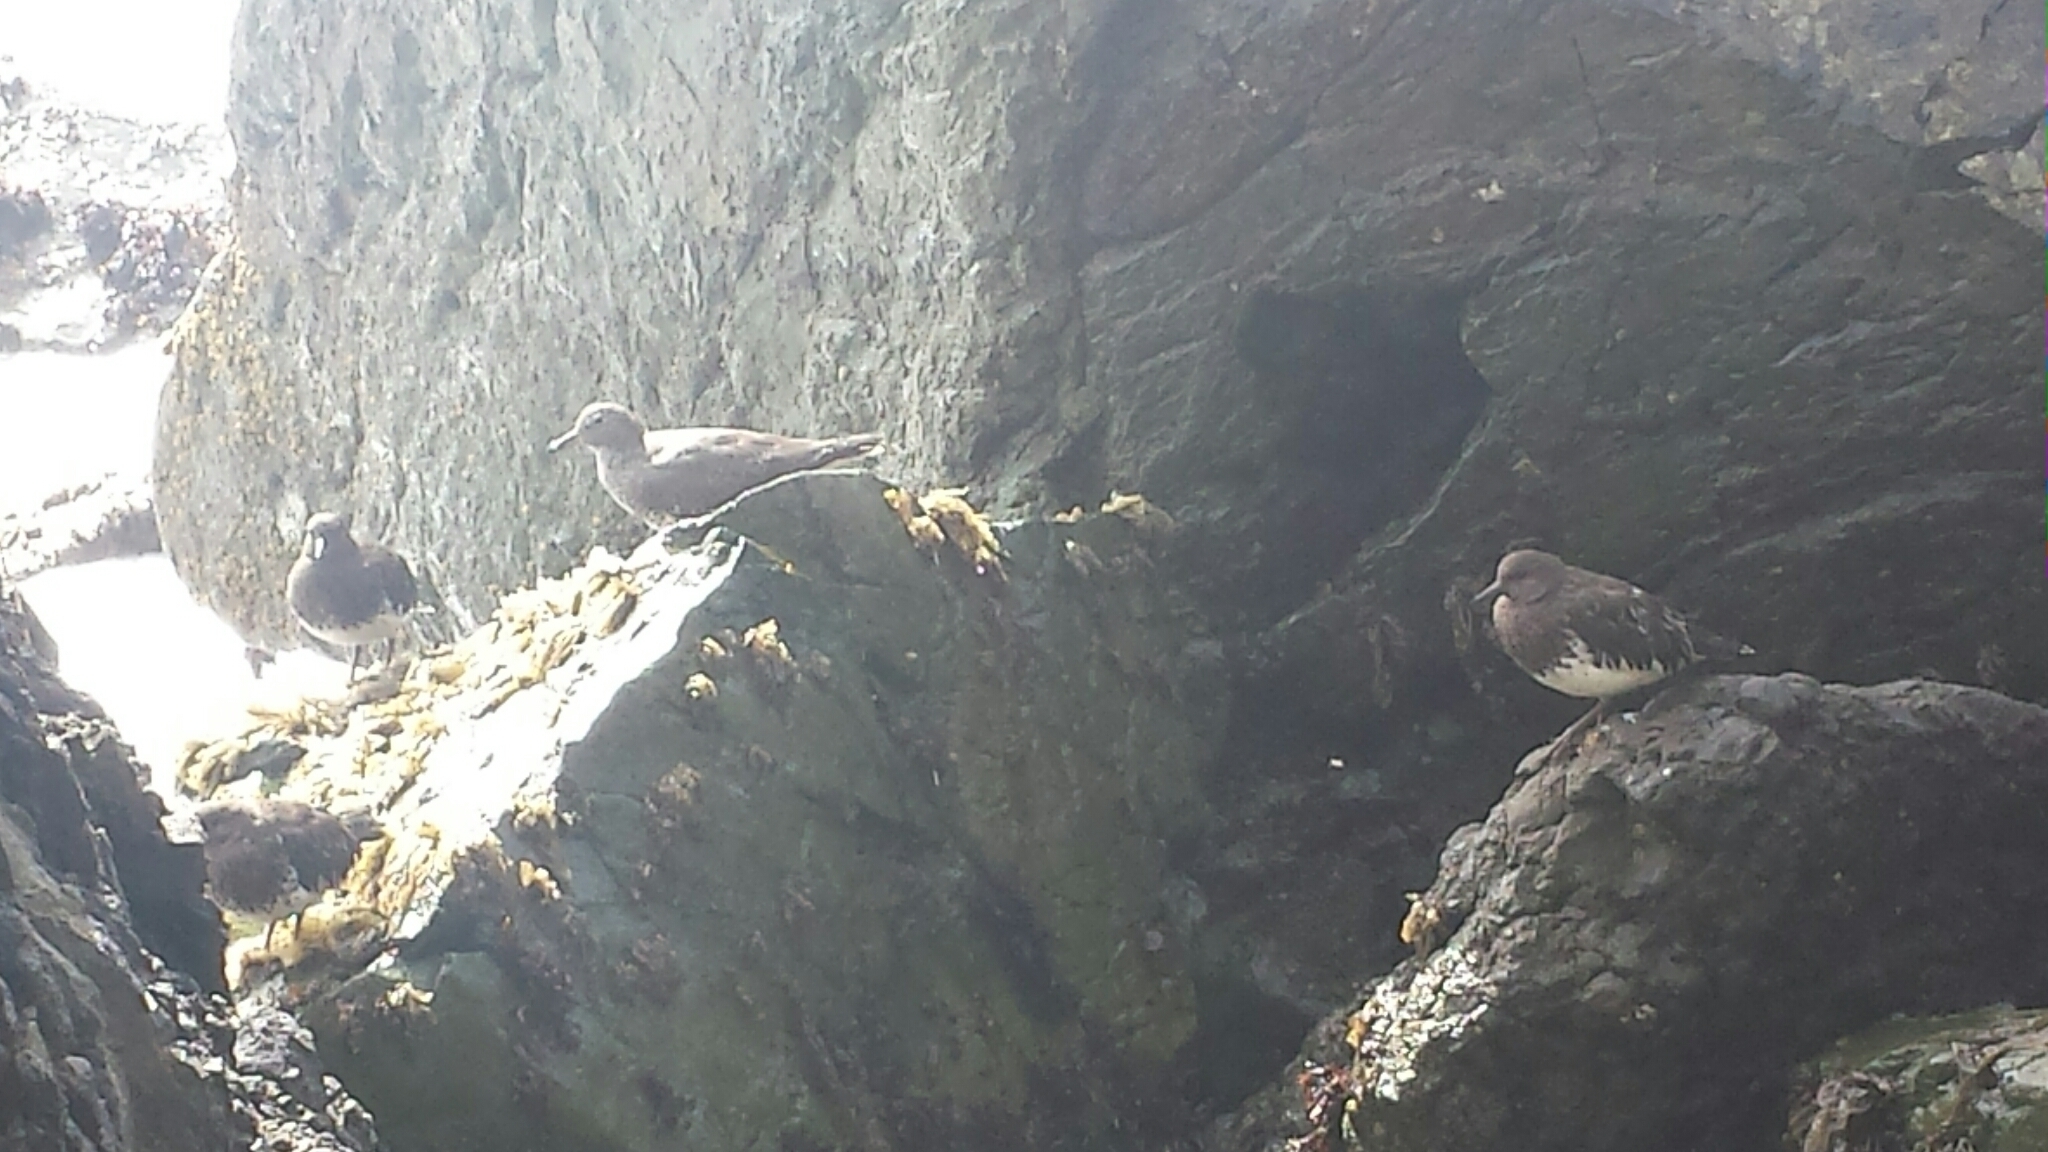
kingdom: Animalia
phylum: Chordata
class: Aves
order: Charadriiformes
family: Scolopacidae
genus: Calidris
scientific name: Calidris virgata
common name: Surfbird
